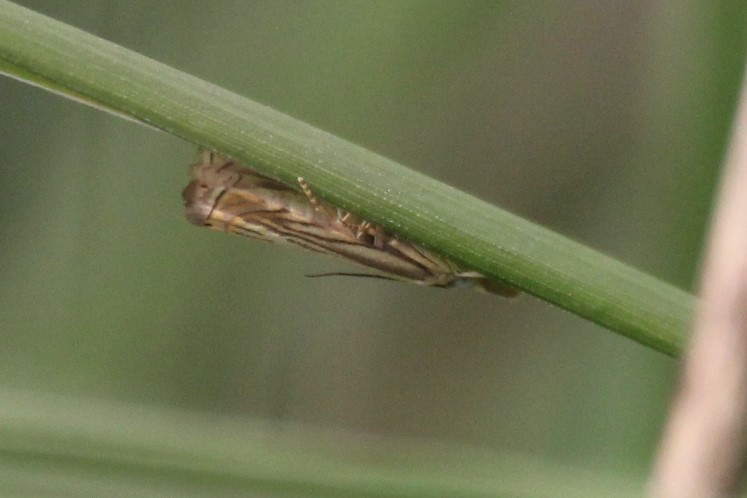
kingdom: Animalia
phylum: Arthropoda
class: Insecta
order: Lepidoptera
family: Crambidae
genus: Chrysoteuchia
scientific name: Chrysoteuchia topiarius
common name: Topiary grass-veneer
